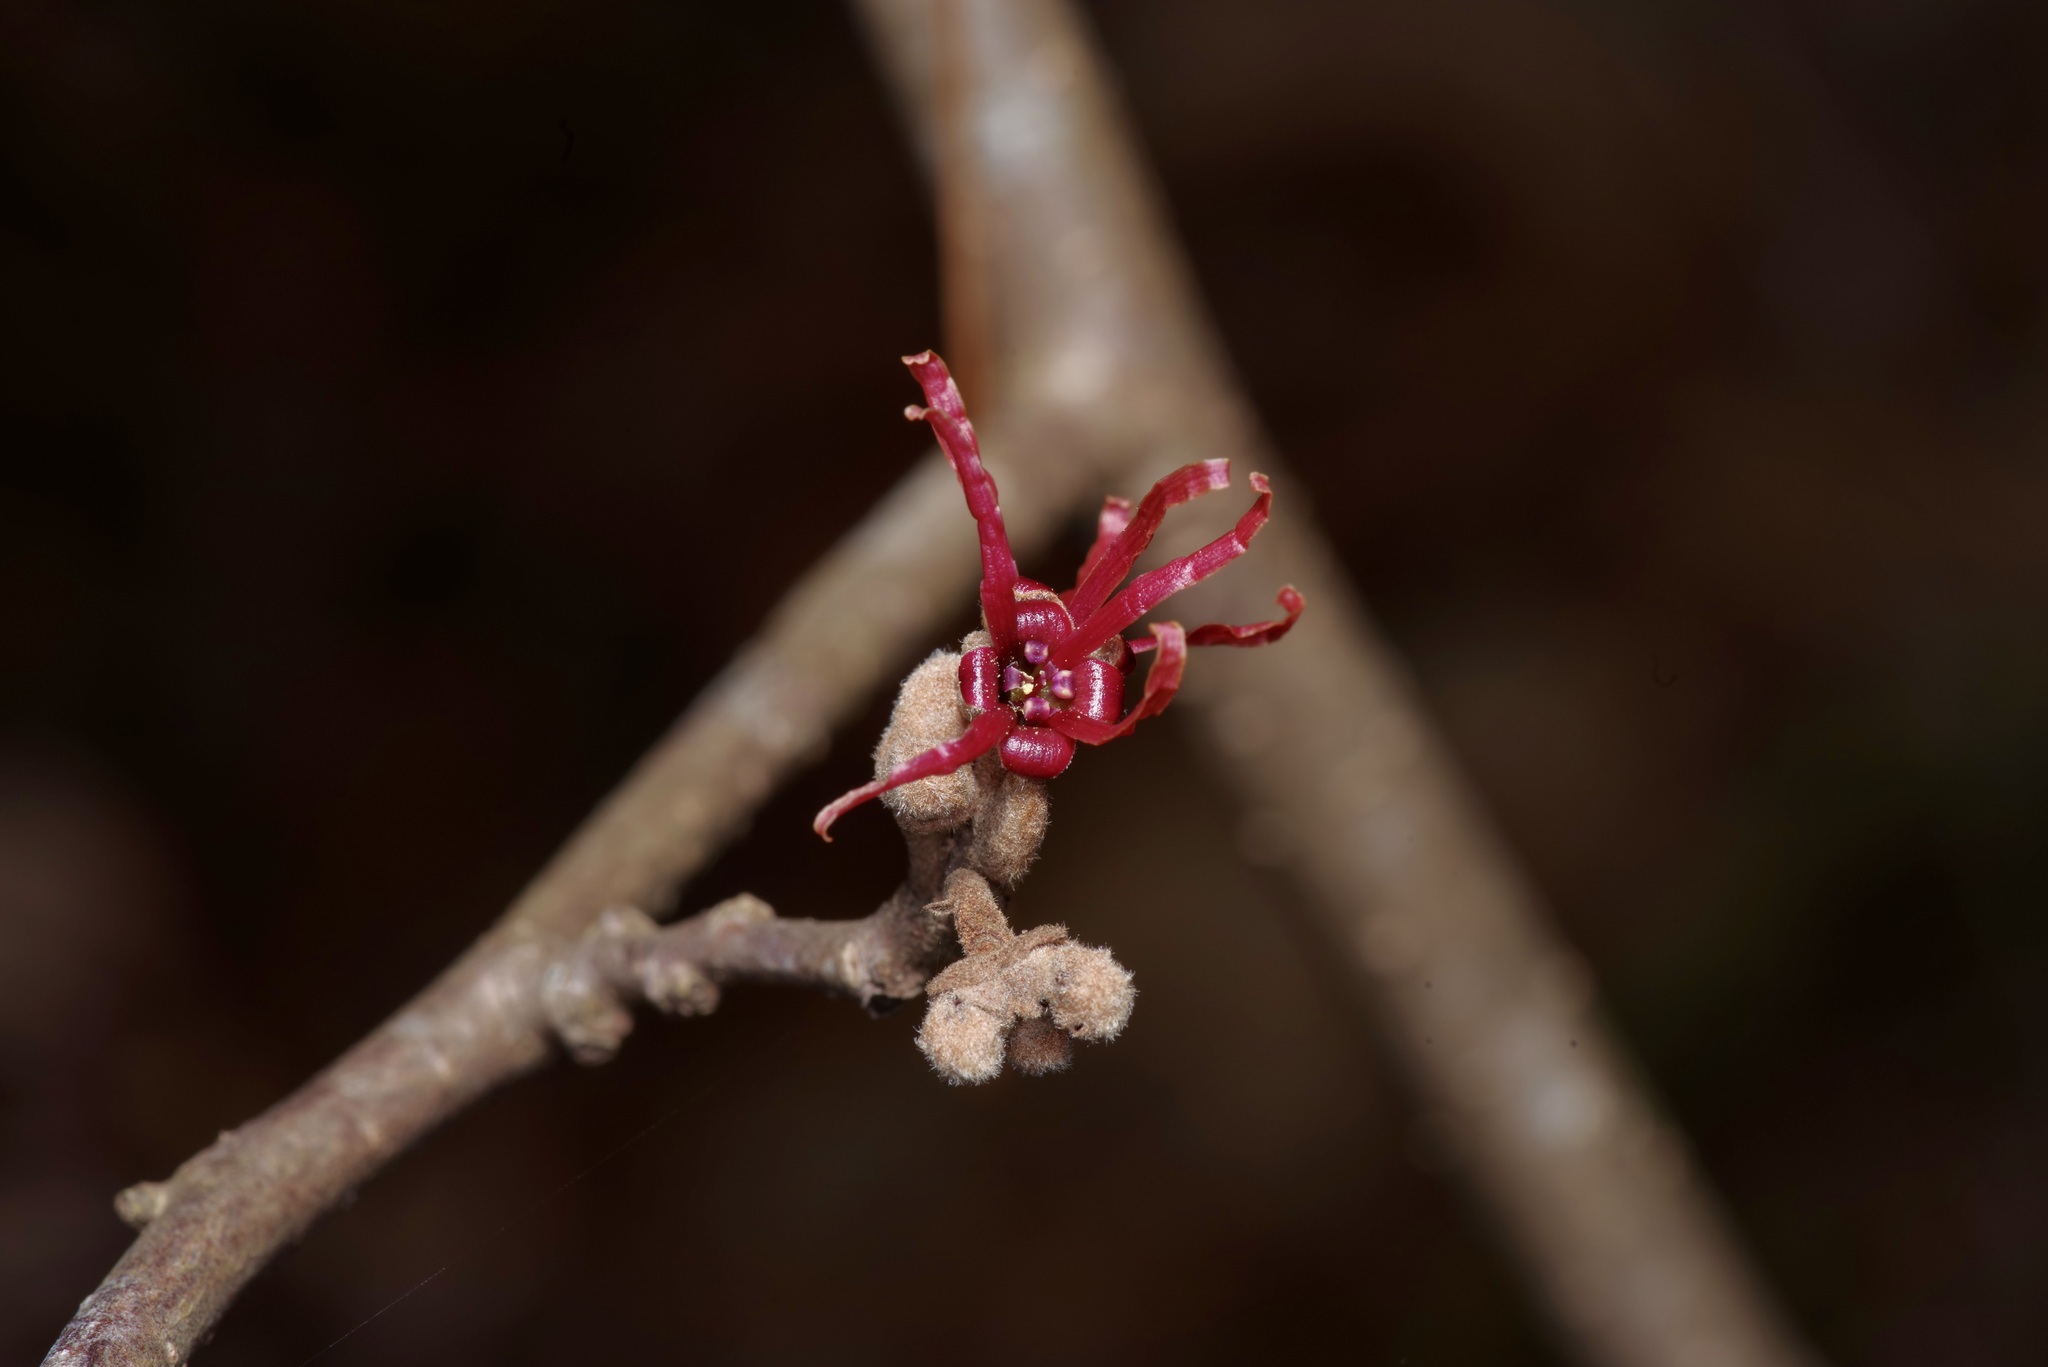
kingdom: Plantae
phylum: Tracheophyta
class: Magnoliopsida
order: Saxifragales
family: Hamamelidaceae
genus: Hamamelis
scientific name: Hamamelis ovalis
